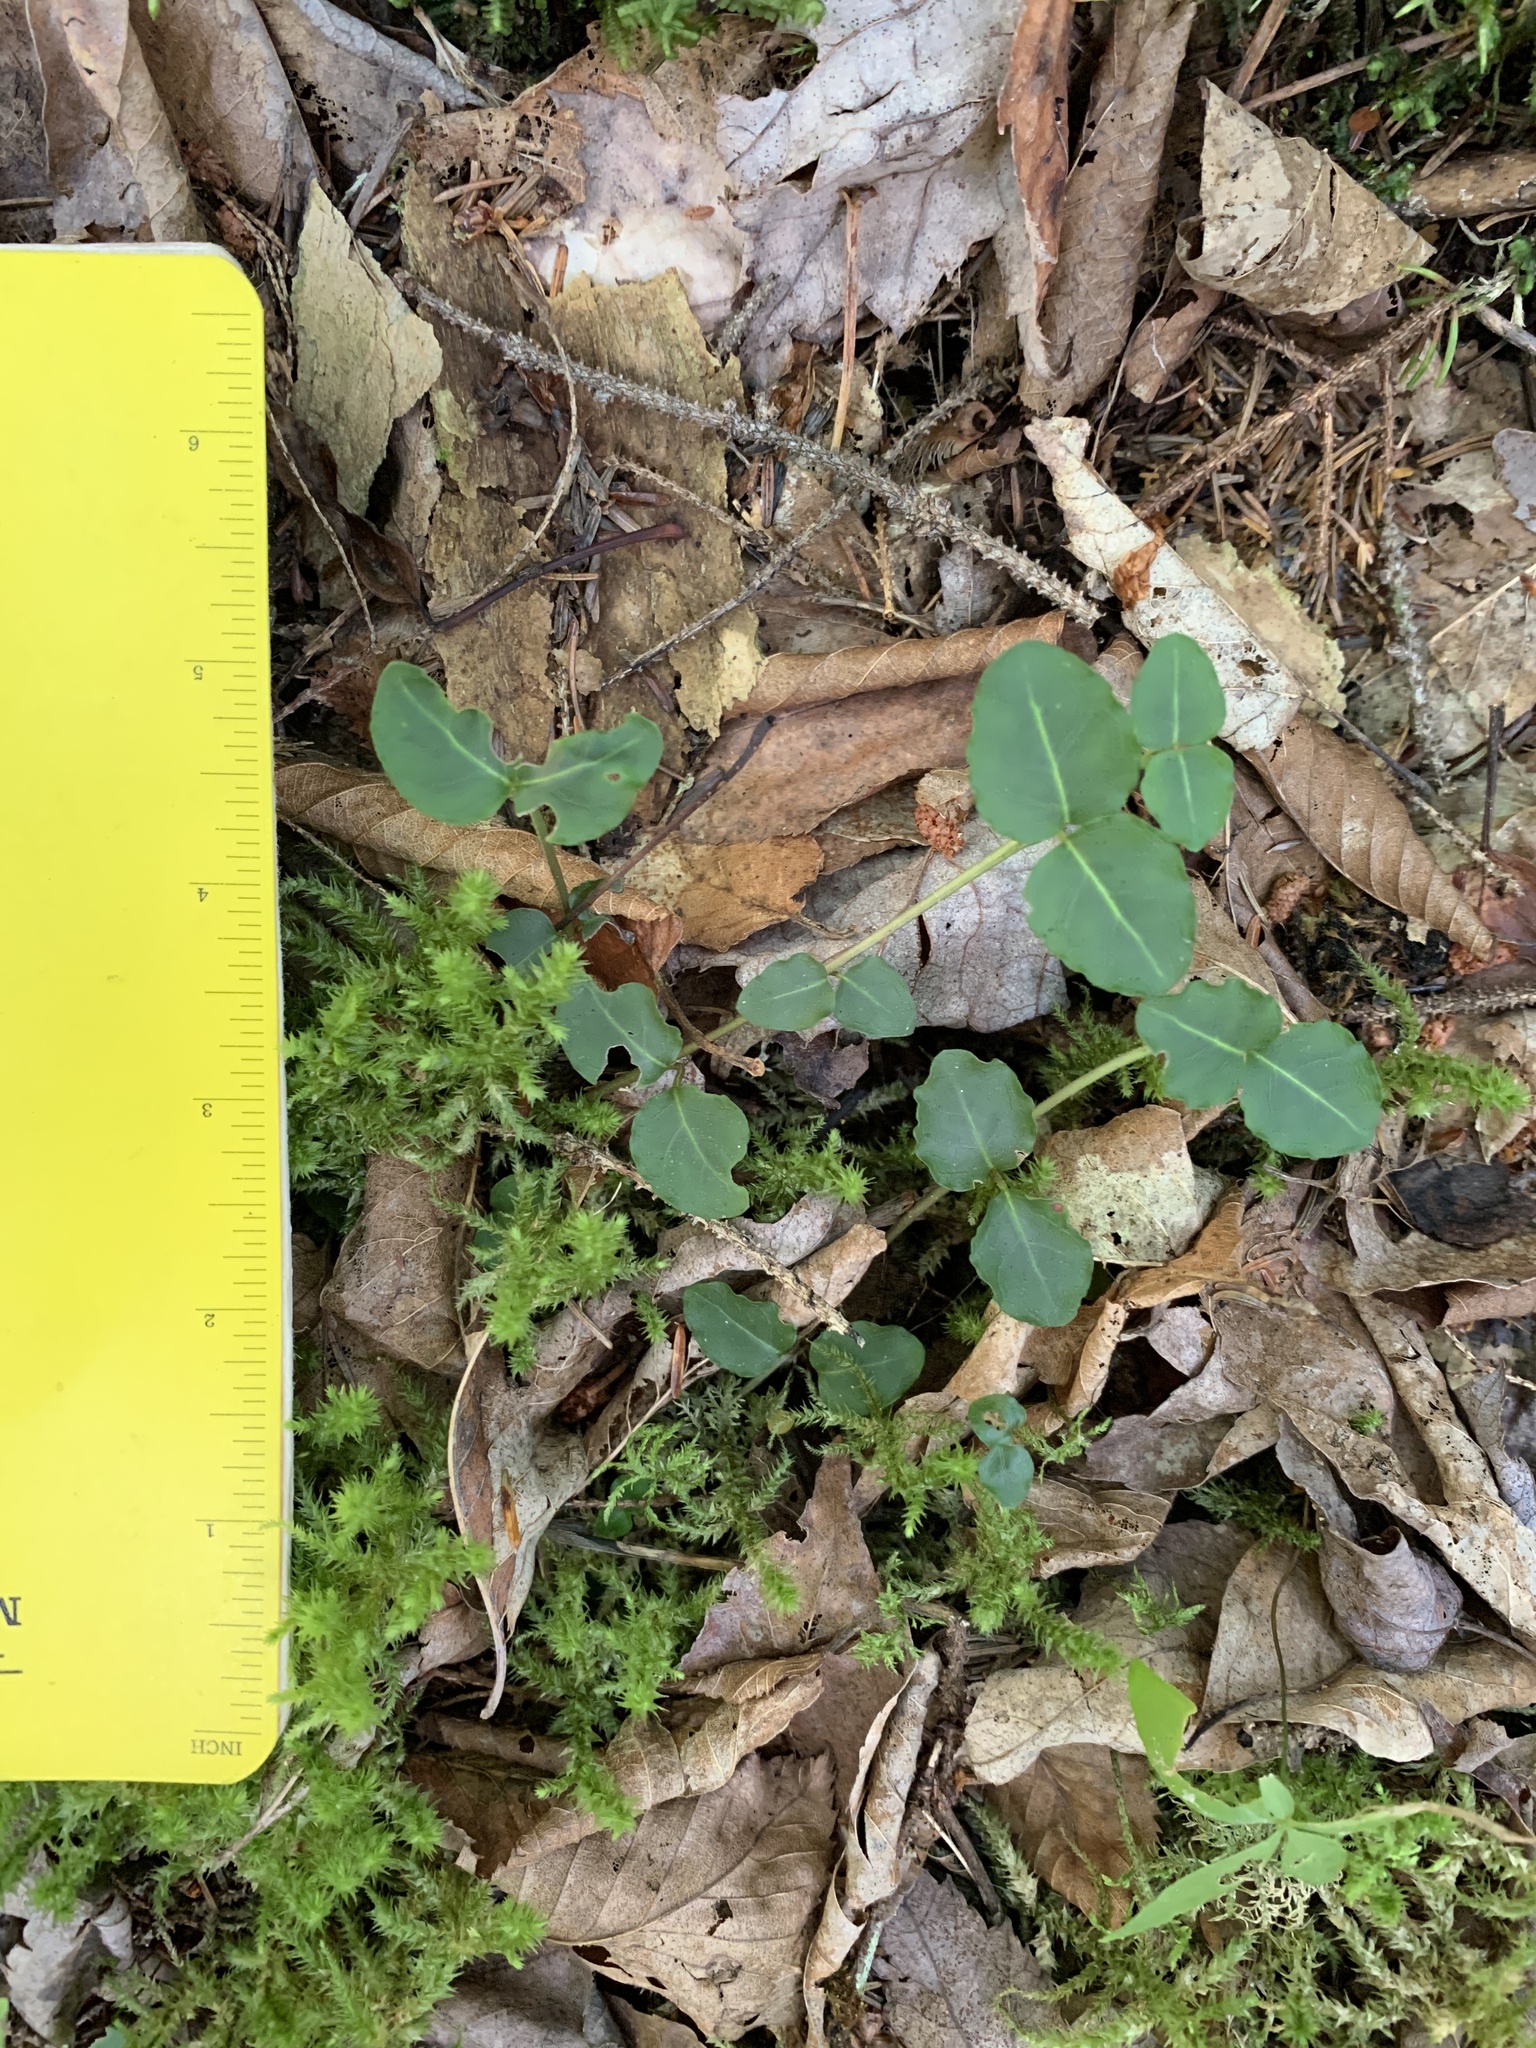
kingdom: Plantae
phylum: Tracheophyta
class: Magnoliopsida
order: Gentianales
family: Rubiaceae
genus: Mitchella
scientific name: Mitchella repens
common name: Partridge-berry
